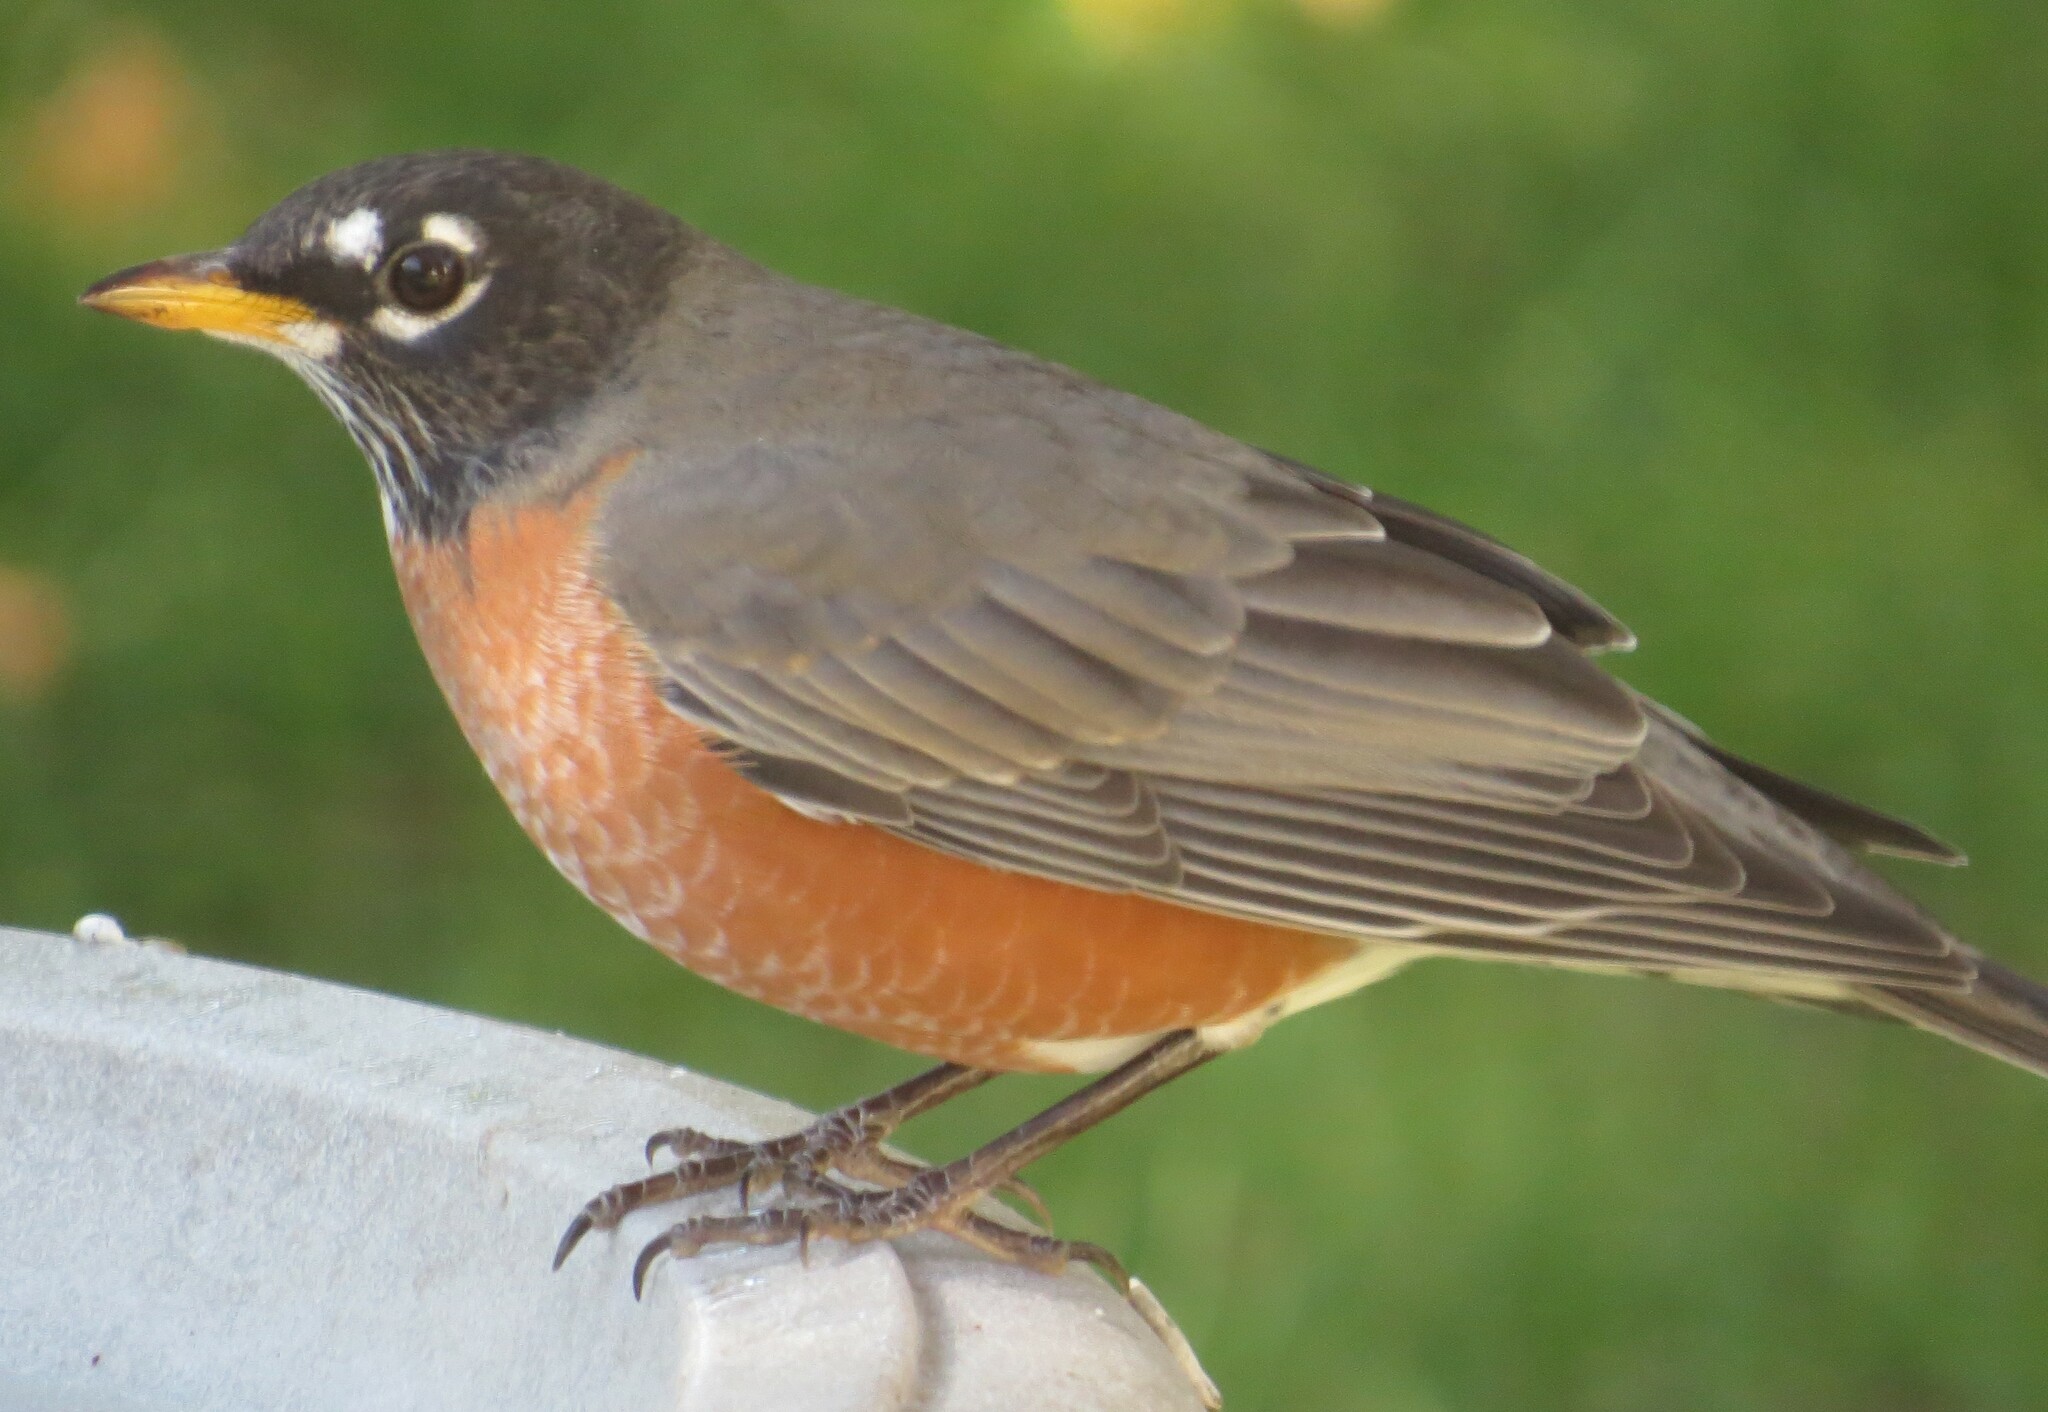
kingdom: Animalia
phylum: Chordata
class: Aves
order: Passeriformes
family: Turdidae
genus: Turdus
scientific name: Turdus migratorius
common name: American robin
